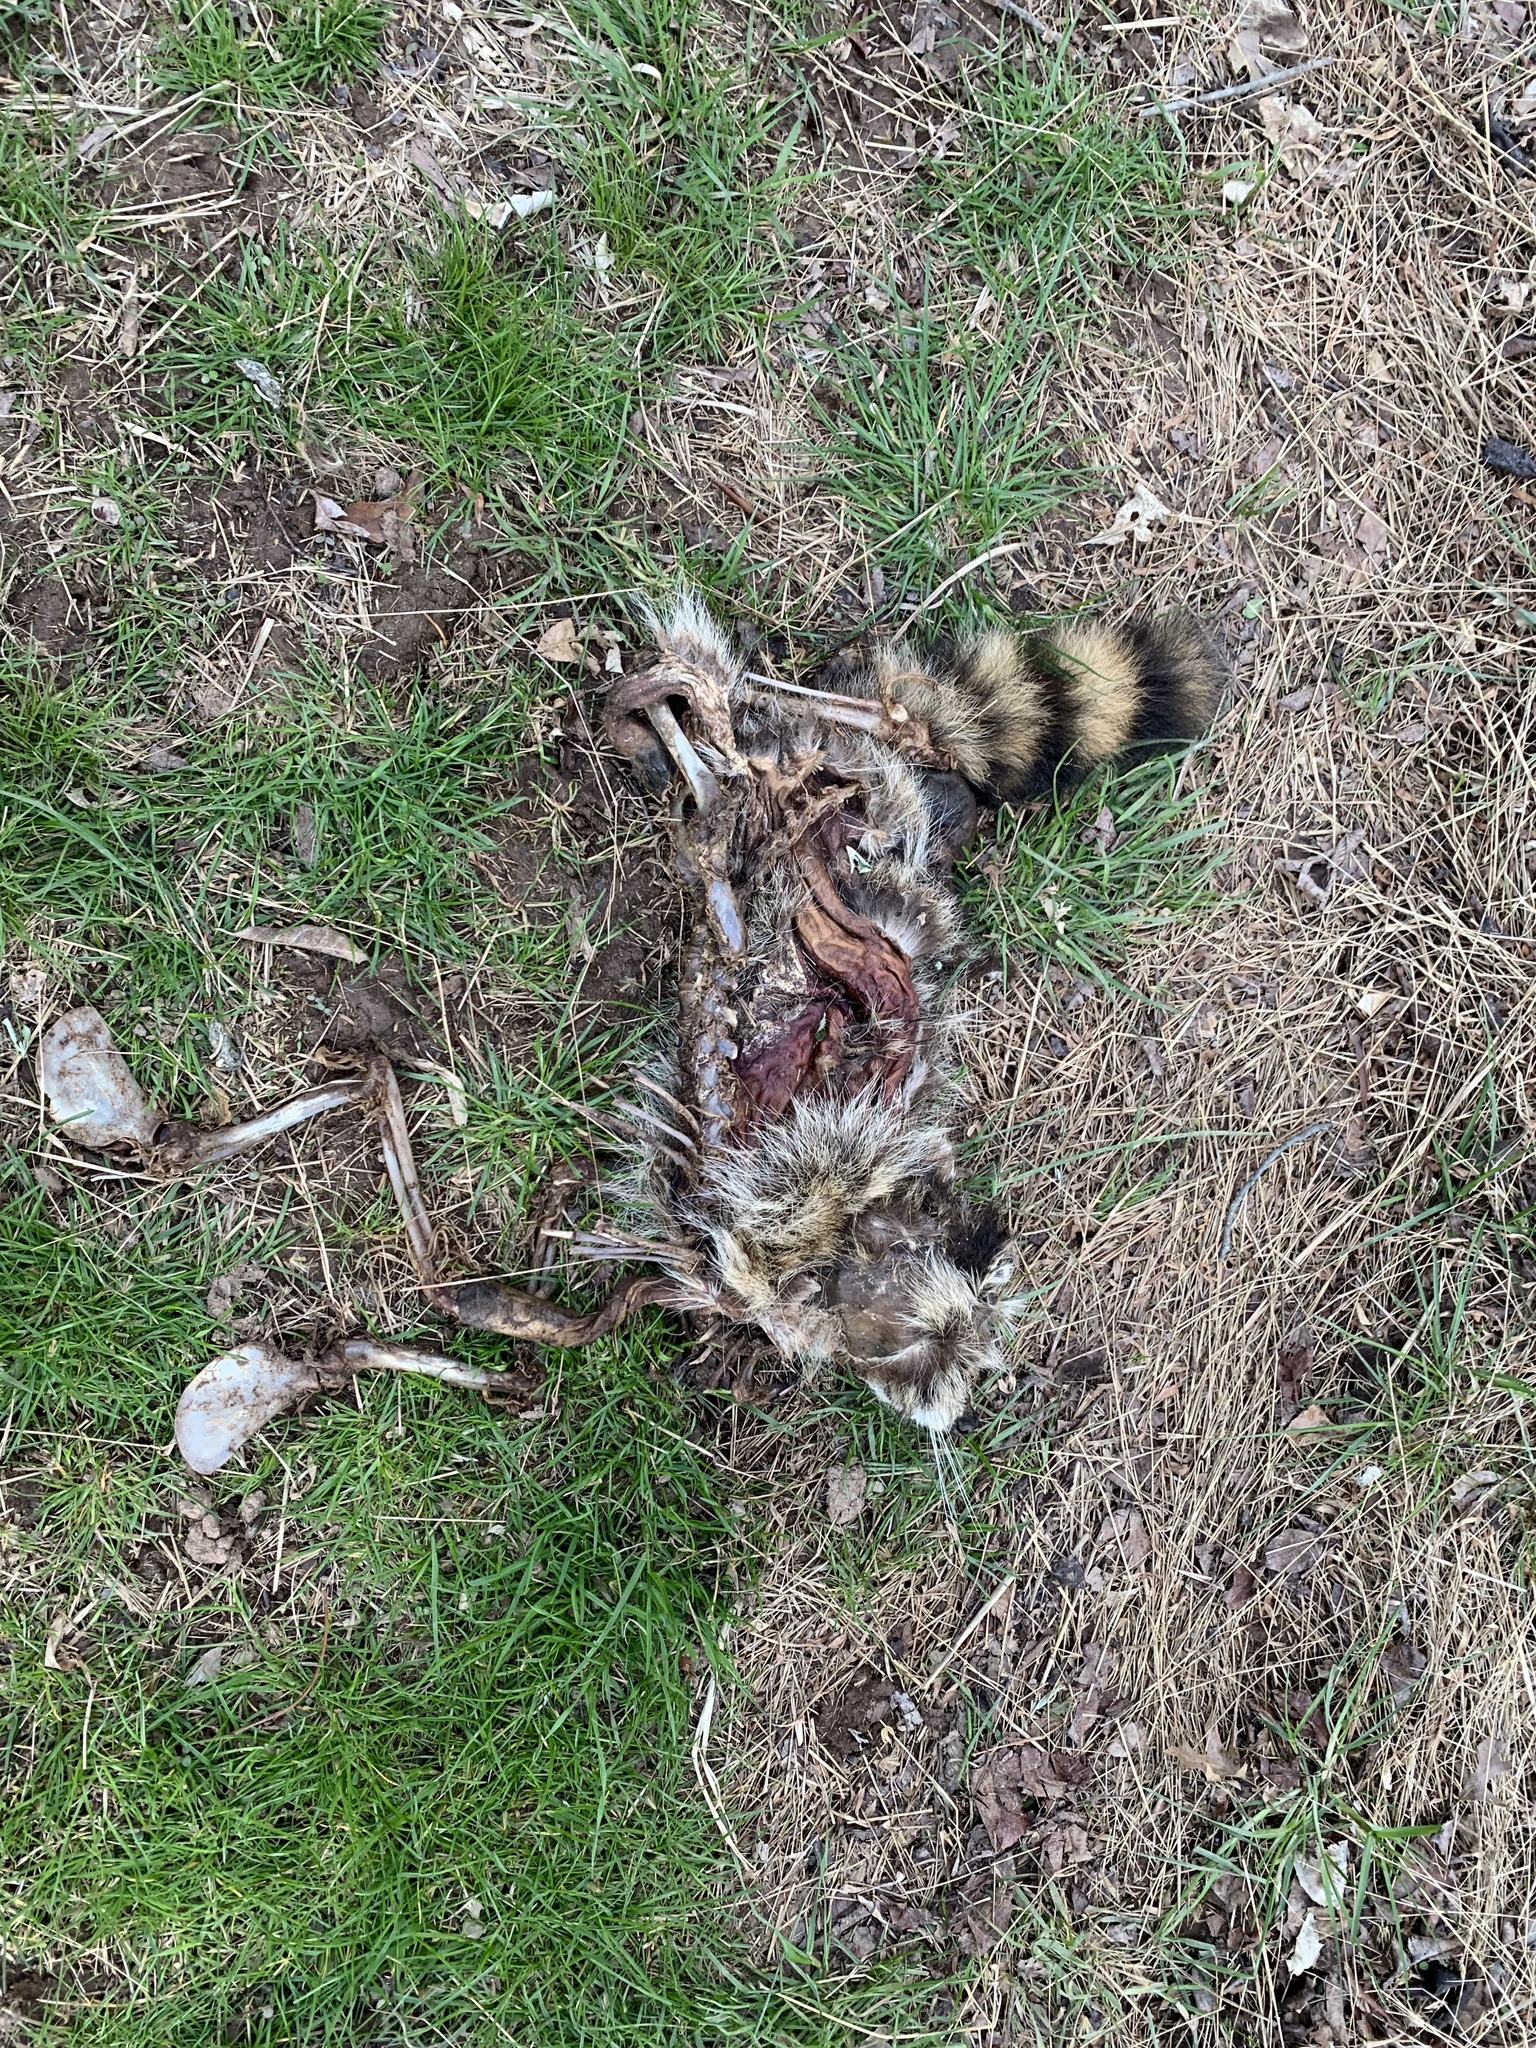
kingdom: Animalia
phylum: Chordata
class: Mammalia
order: Carnivora
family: Procyonidae
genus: Procyon
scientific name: Procyon lotor
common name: Raccoon
